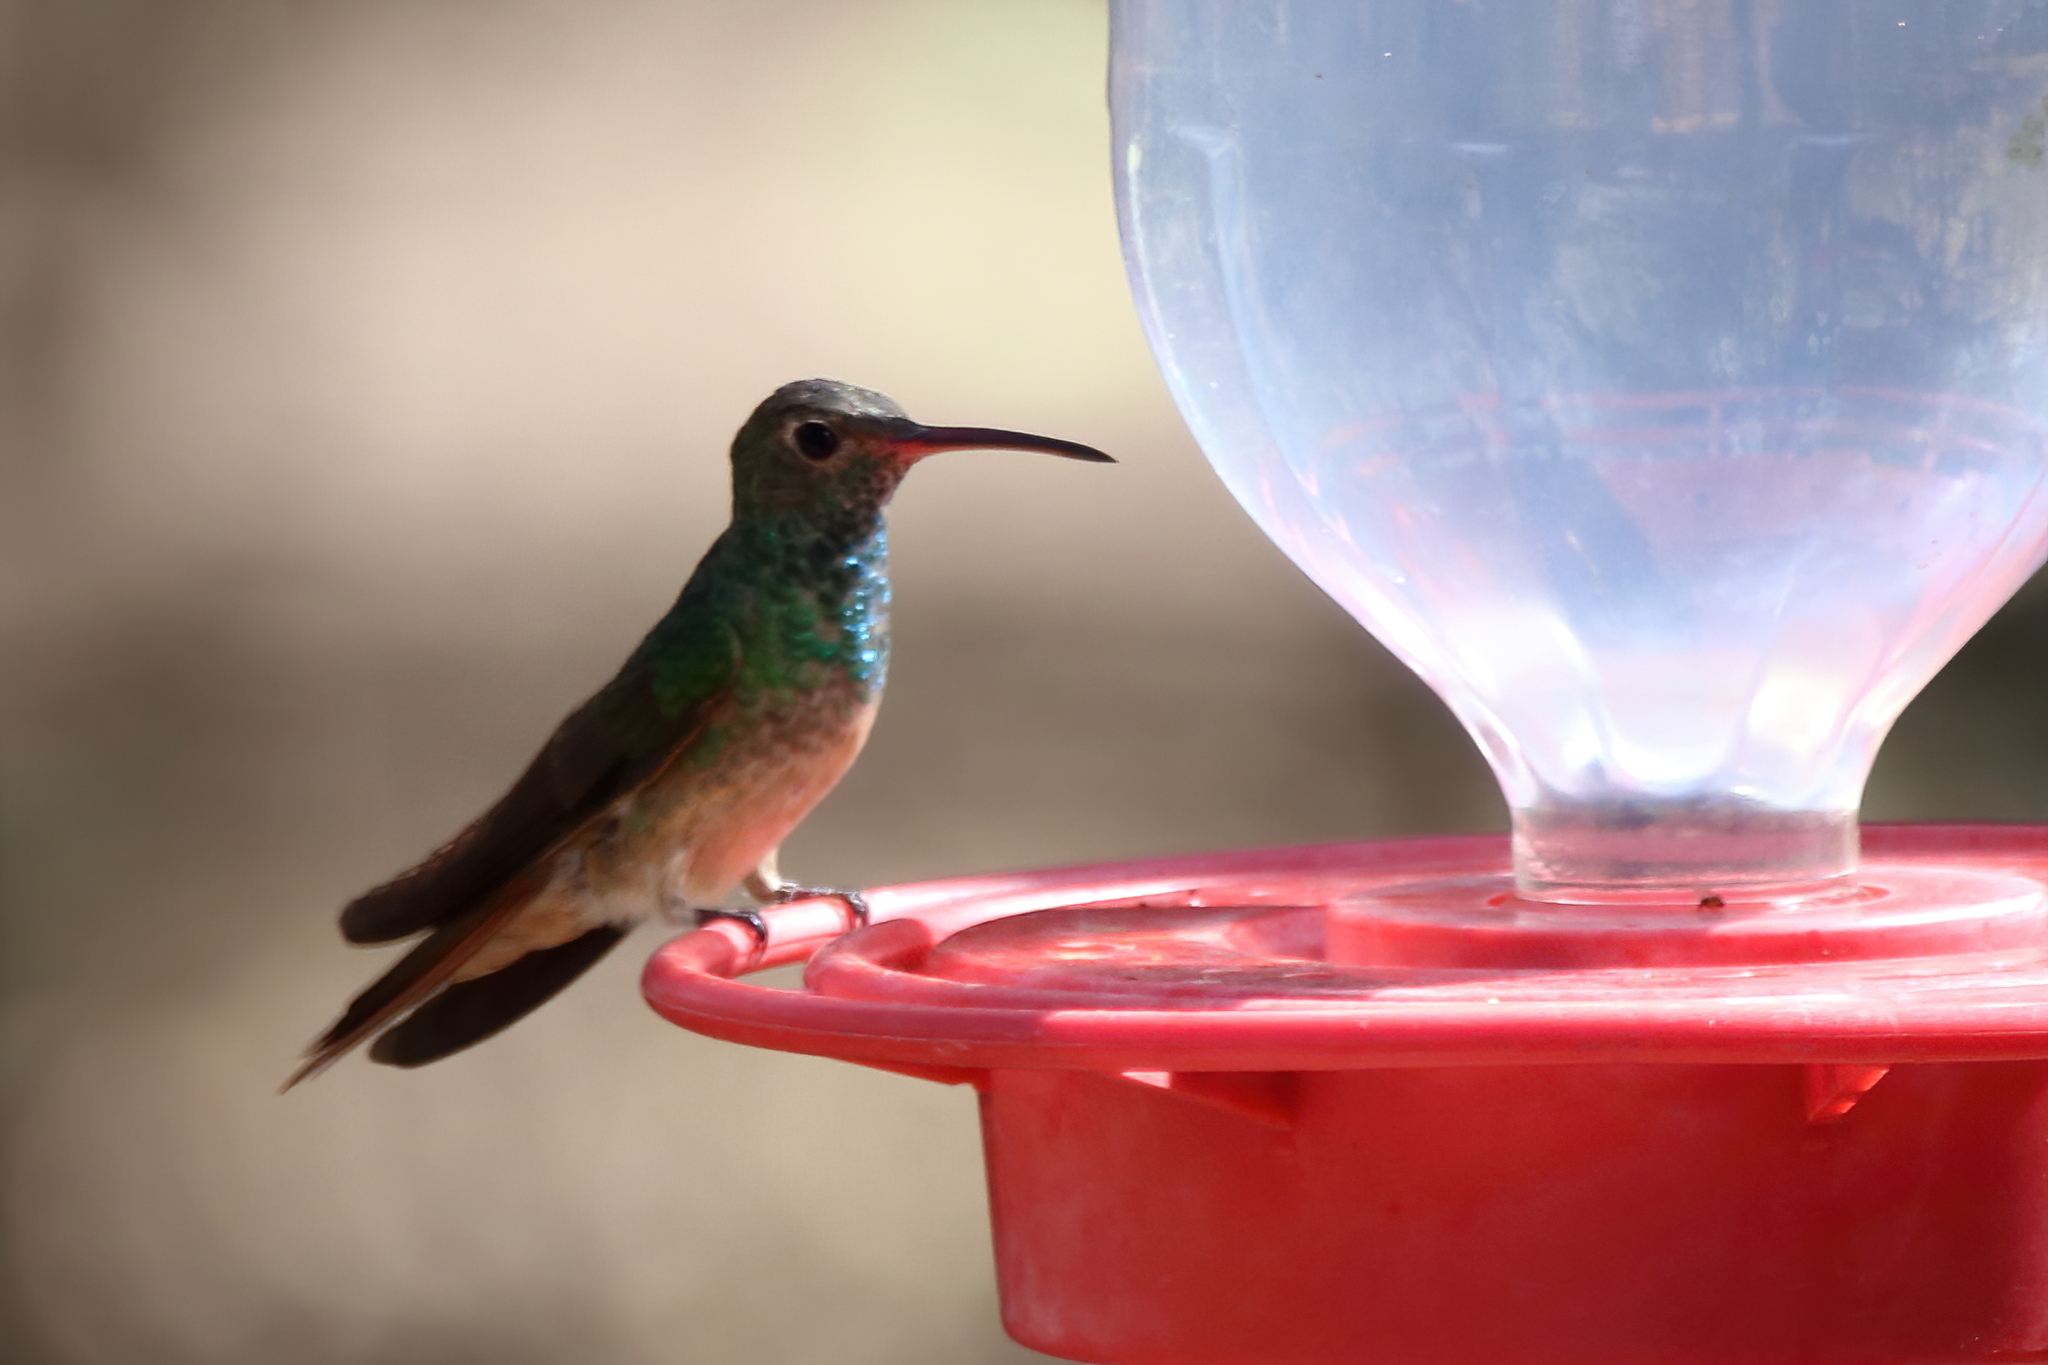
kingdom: Animalia
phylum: Chordata
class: Aves
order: Apodiformes
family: Trochilidae
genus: Amazilia
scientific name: Amazilia yucatanensis
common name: Buff-bellied hummingbird
